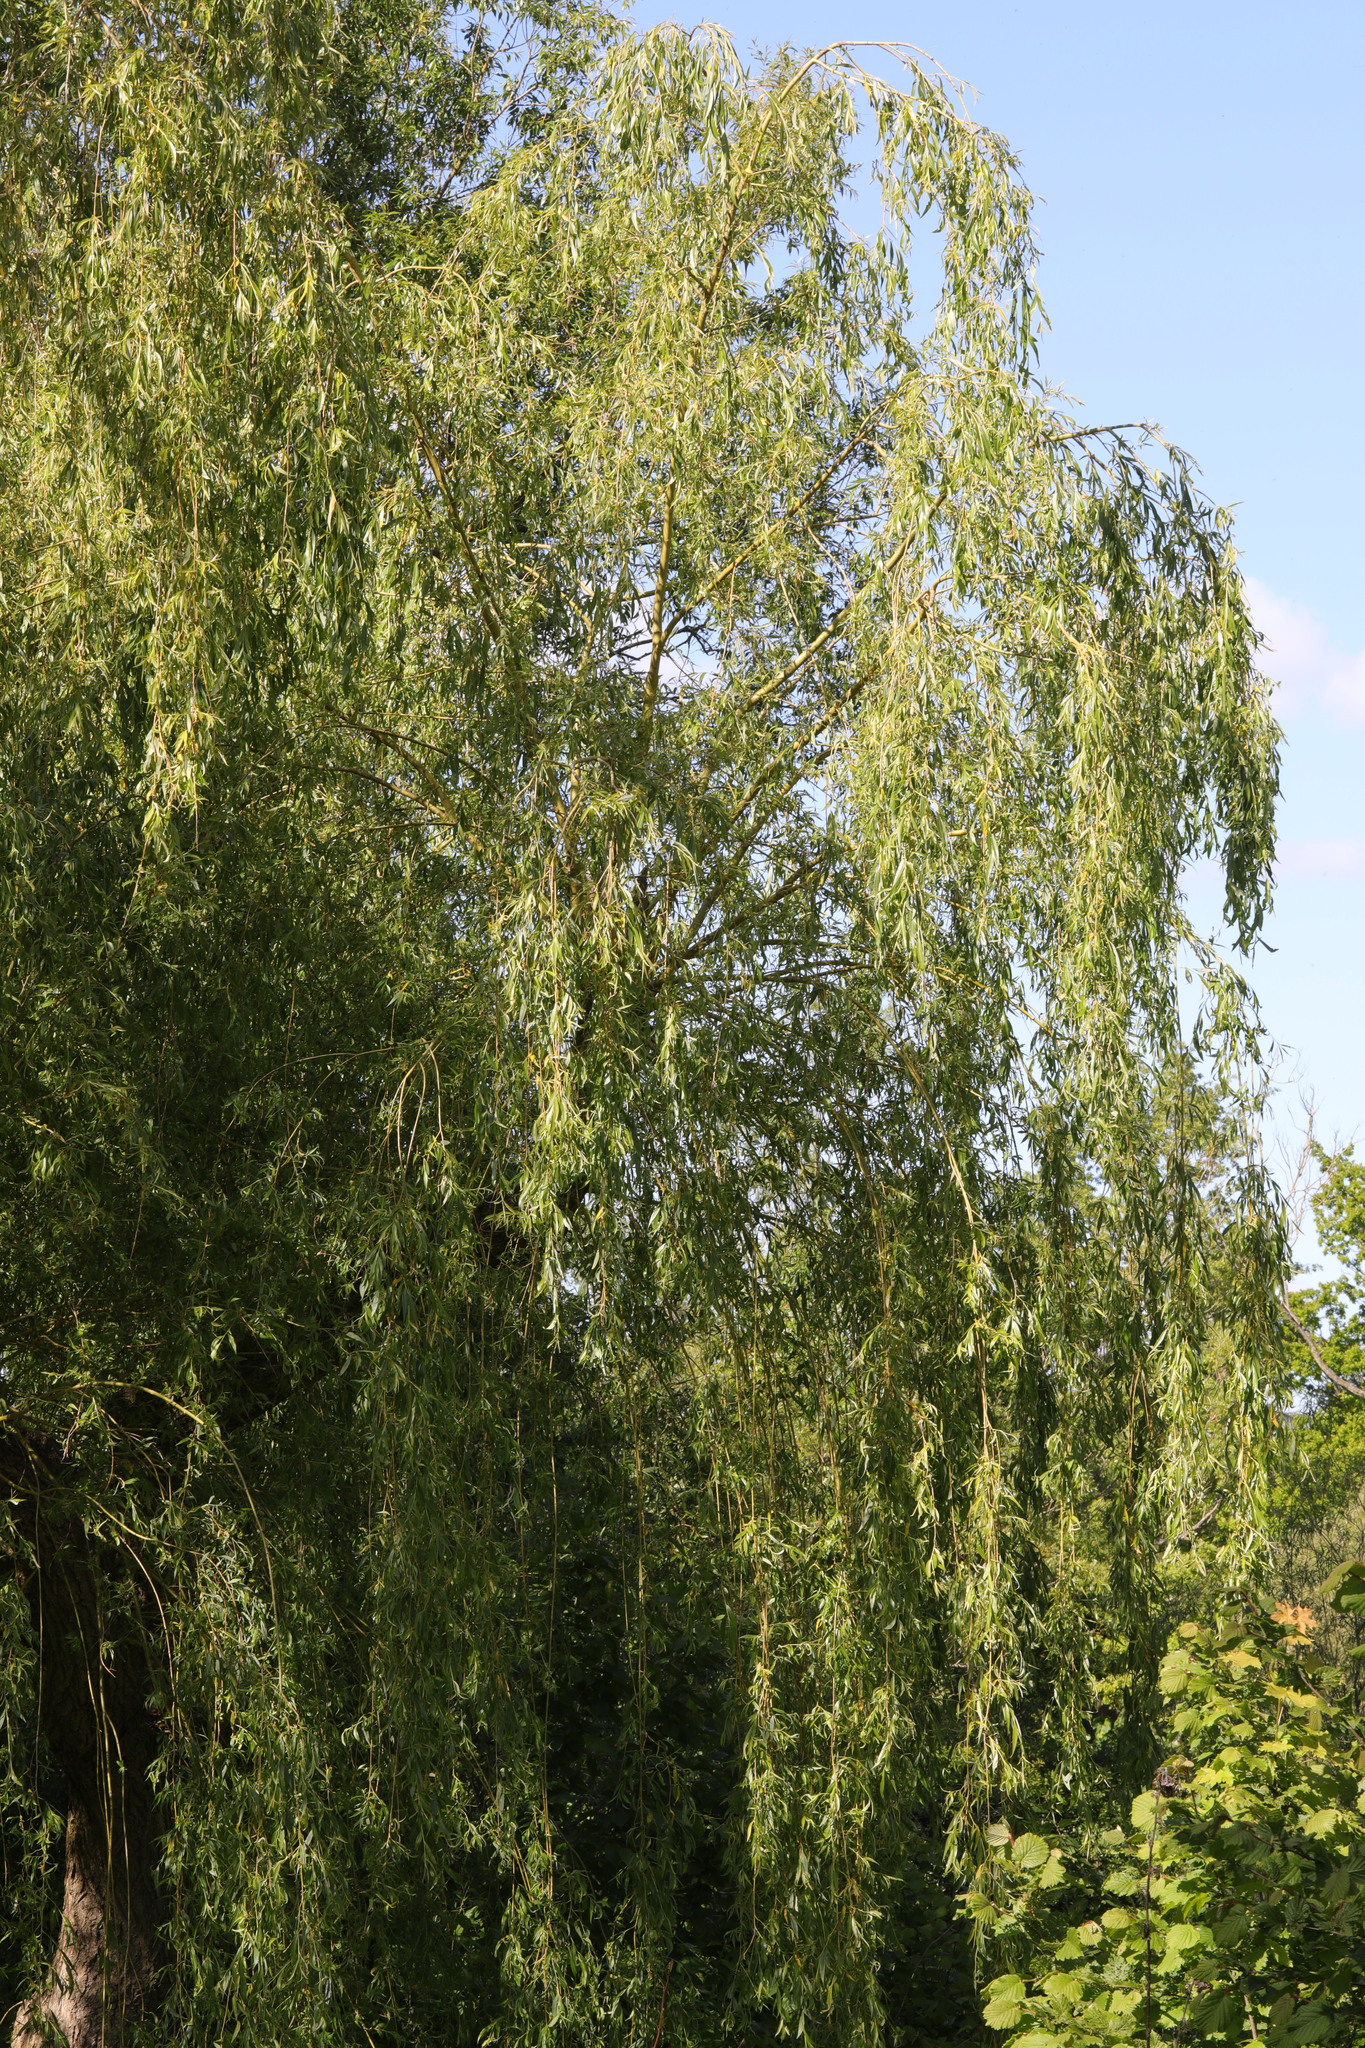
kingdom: Plantae
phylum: Tracheophyta
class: Magnoliopsida
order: Malpighiales
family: Salicaceae
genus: Salix
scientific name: Salix pendulina
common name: Wisconsin weeping willow
